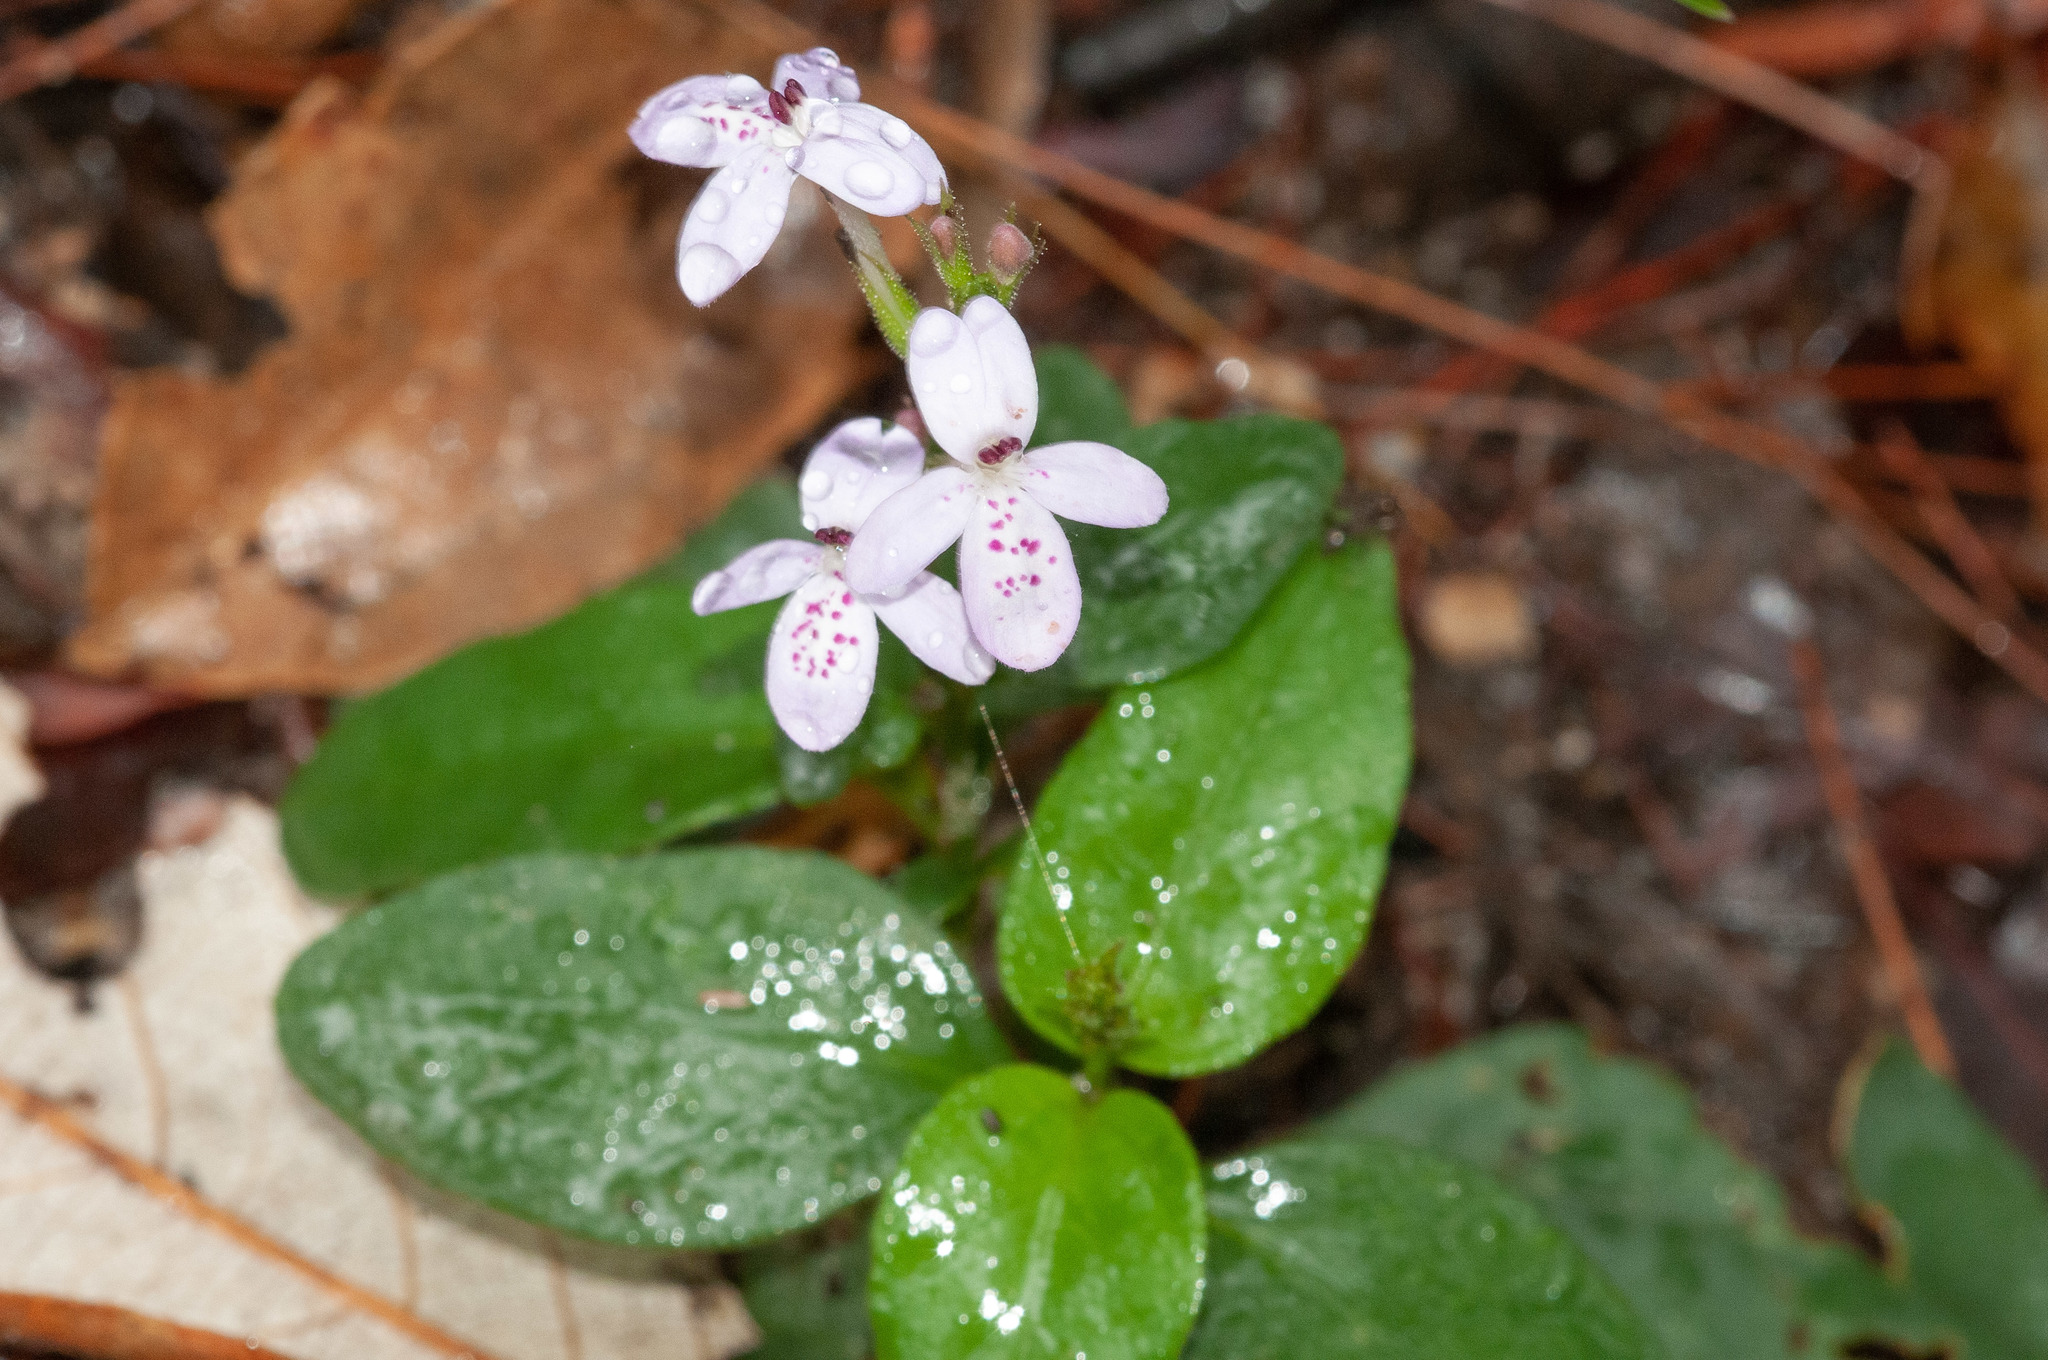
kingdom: Plantae
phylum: Tracheophyta
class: Magnoliopsida
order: Lamiales
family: Acanthaceae
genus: Pseuderanthemum
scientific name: Pseuderanthemum variabile
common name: Night and afternoon
